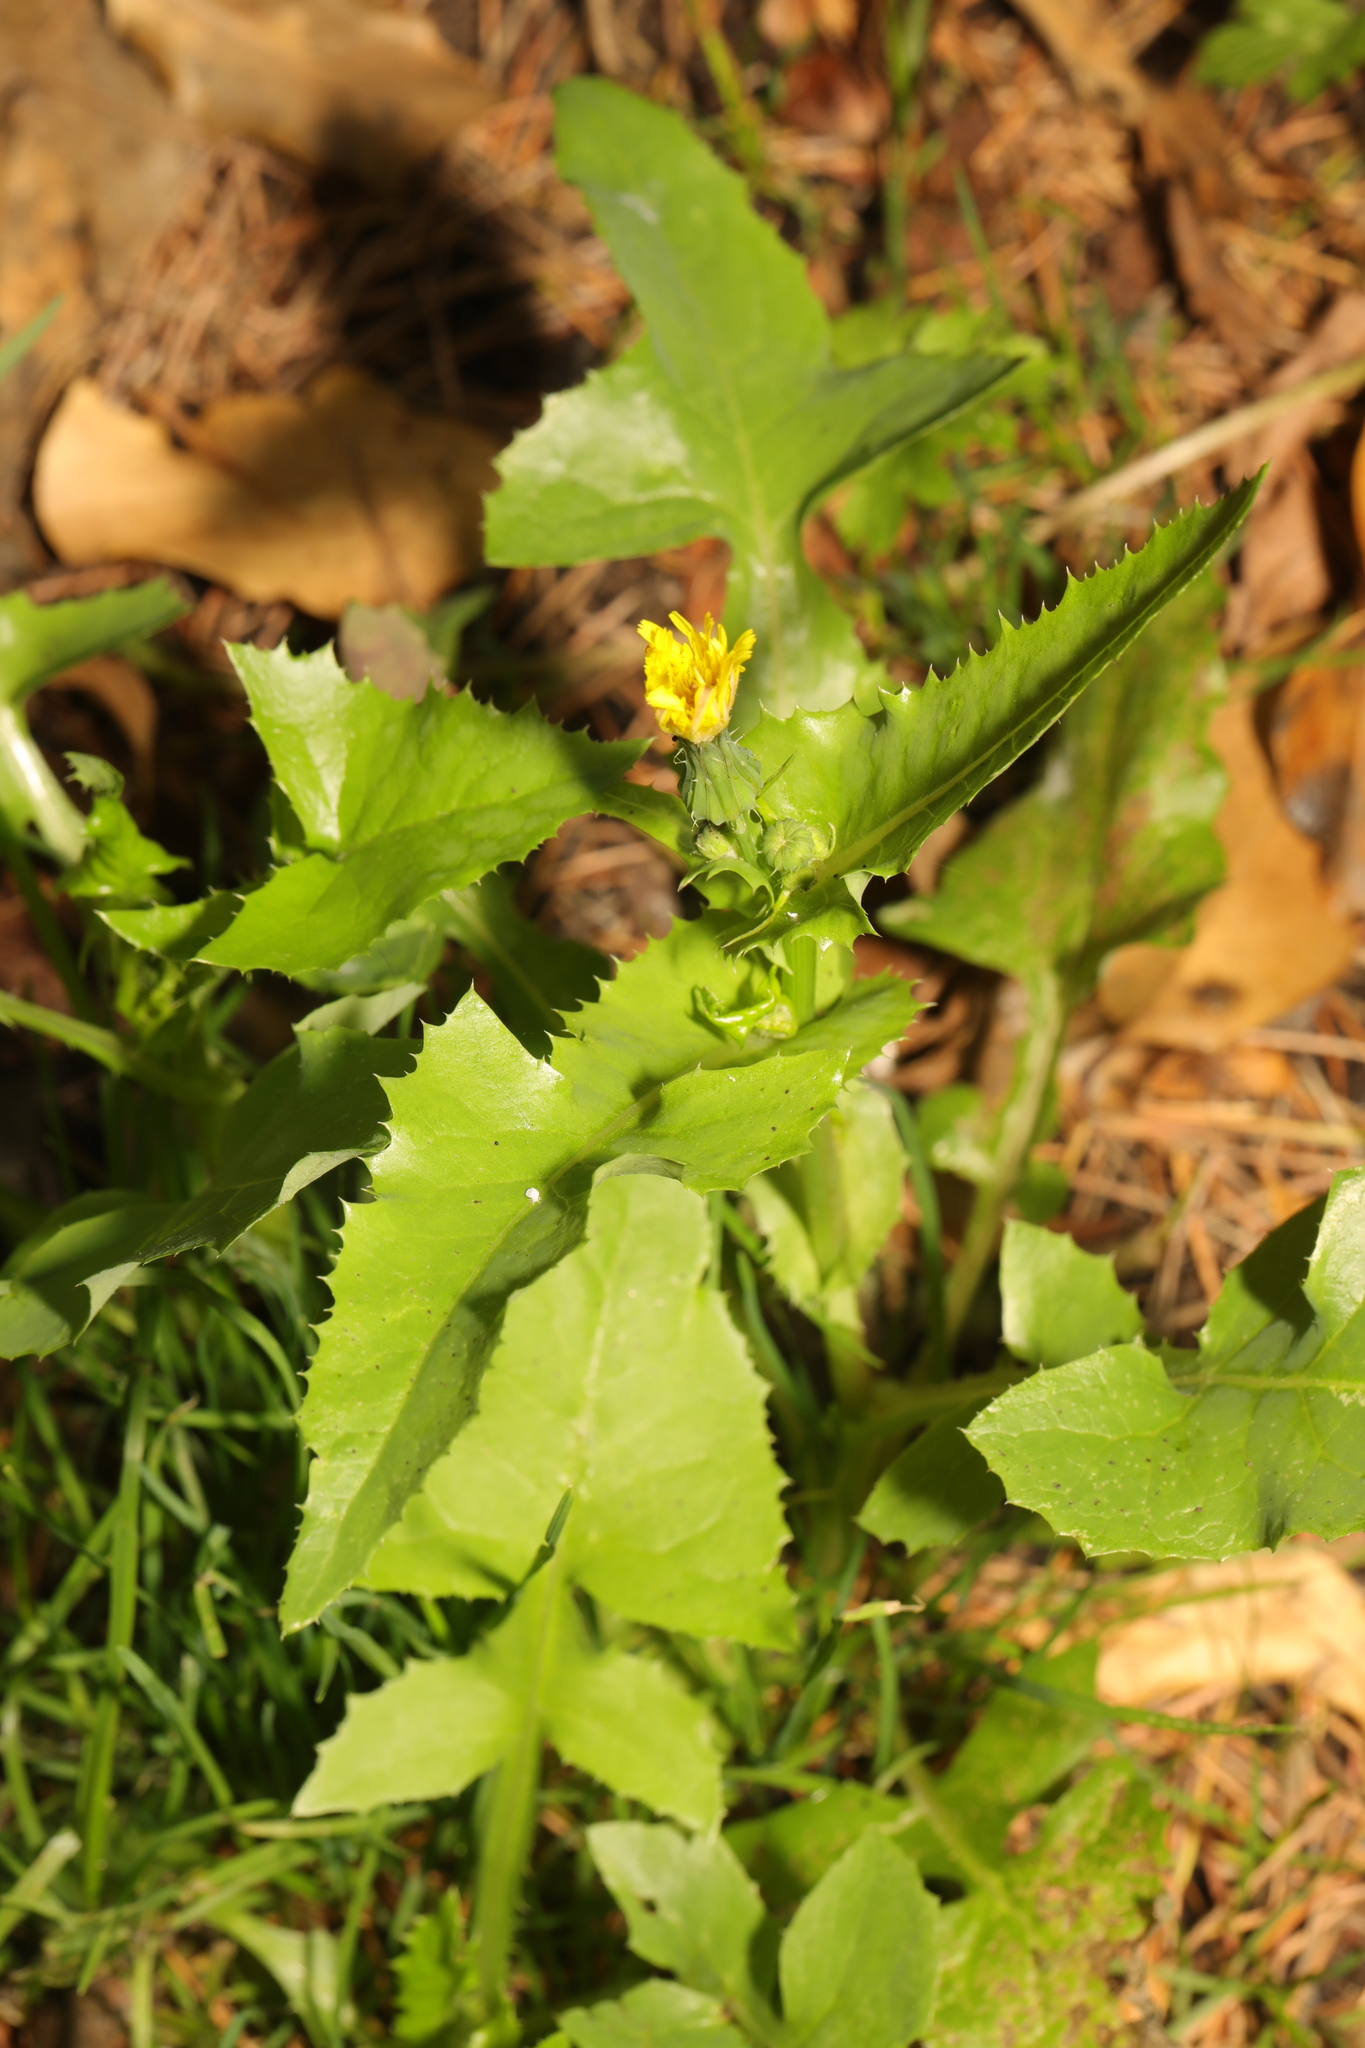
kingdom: Plantae
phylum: Tracheophyta
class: Magnoliopsida
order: Asterales
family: Asteraceae
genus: Sonchus
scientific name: Sonchus oleraceus
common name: Common sowthistle
